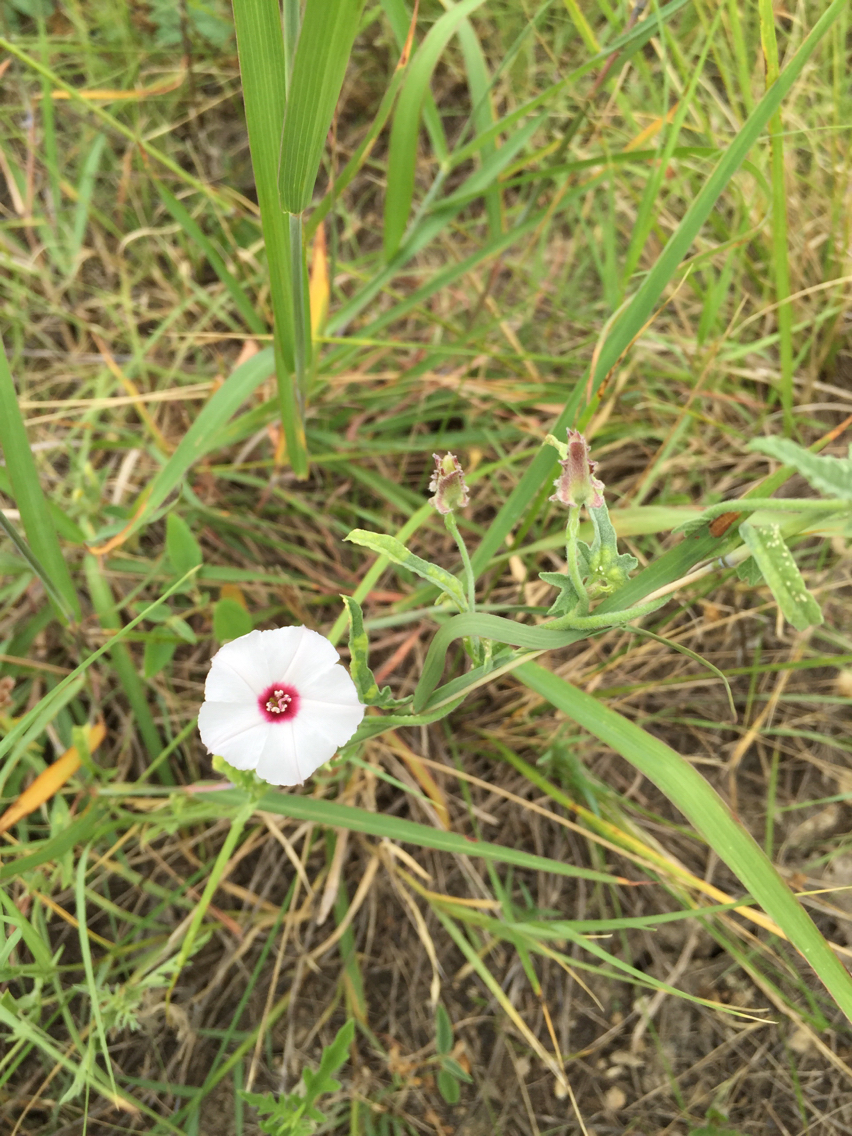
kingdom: Plantae
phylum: Tracheophyta
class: Magnoliopsida
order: Solanales
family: Convolvulaceae
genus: Convolvulus
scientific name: Convolvulus equitans
